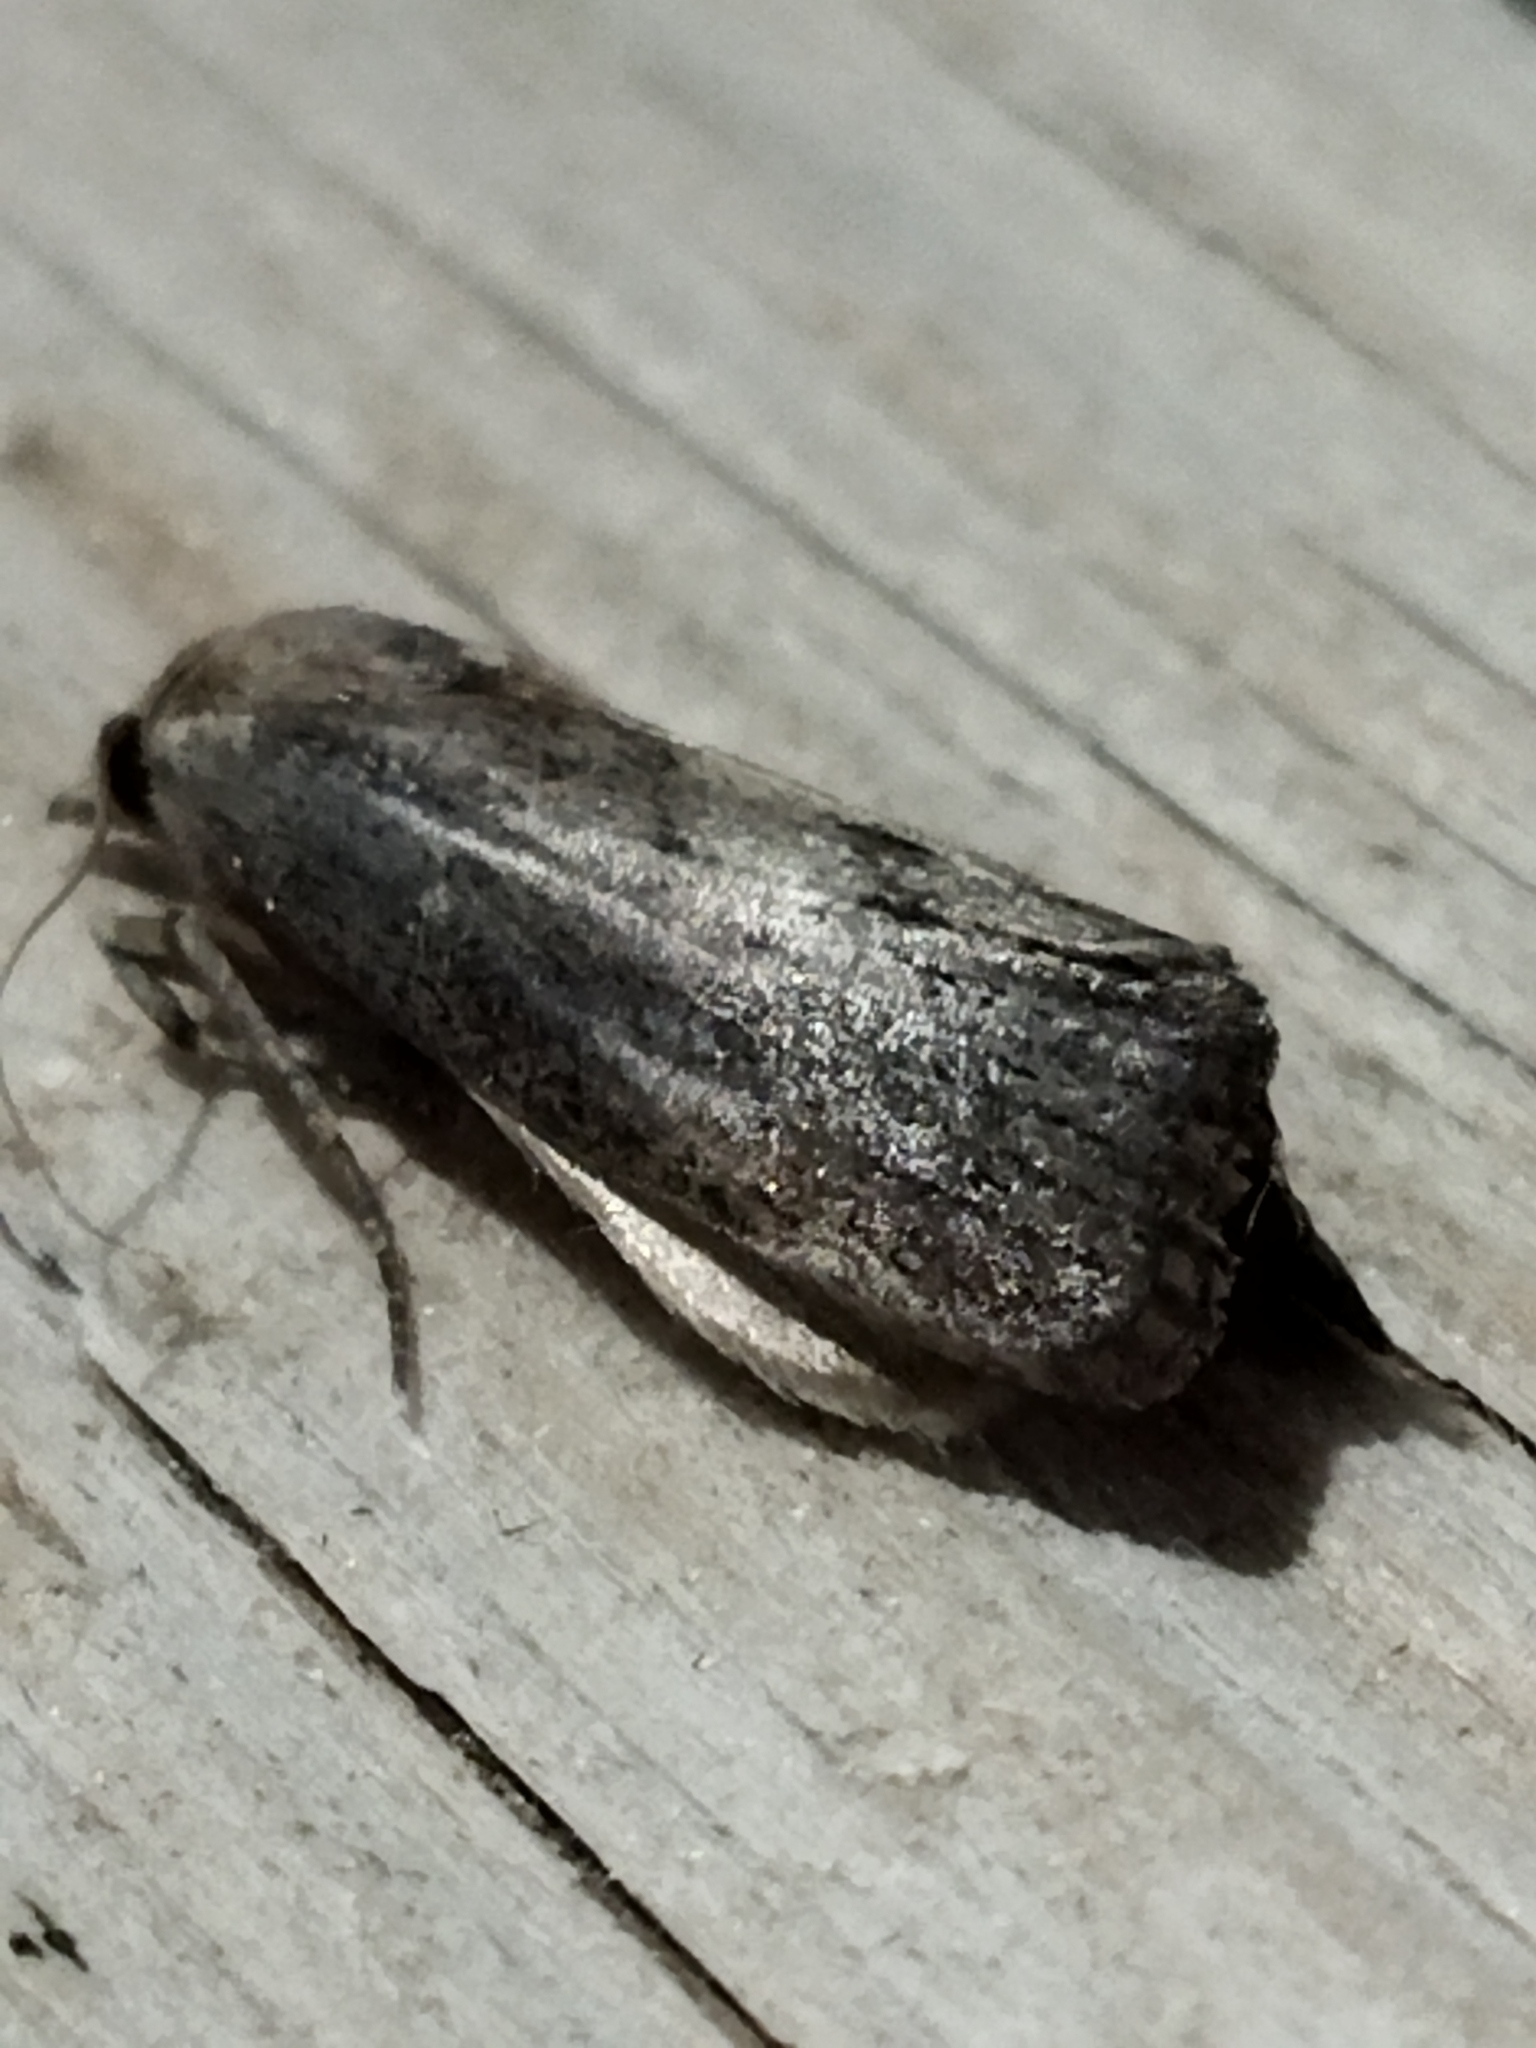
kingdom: Animalia
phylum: Arthropoda
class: Insecta
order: Lepidoptera
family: Pyralidae
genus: Galleria
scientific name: Galleria mellonella
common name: Greater wax moth
